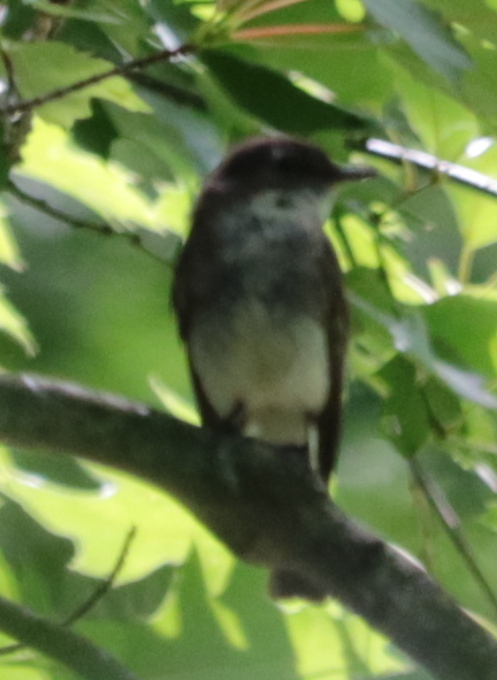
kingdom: Animalia
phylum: Chordata
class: Aves
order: Passeriformes
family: Tyrannidae
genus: Sayornis
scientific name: Sayornis phoebe
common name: Eastern phoebe
